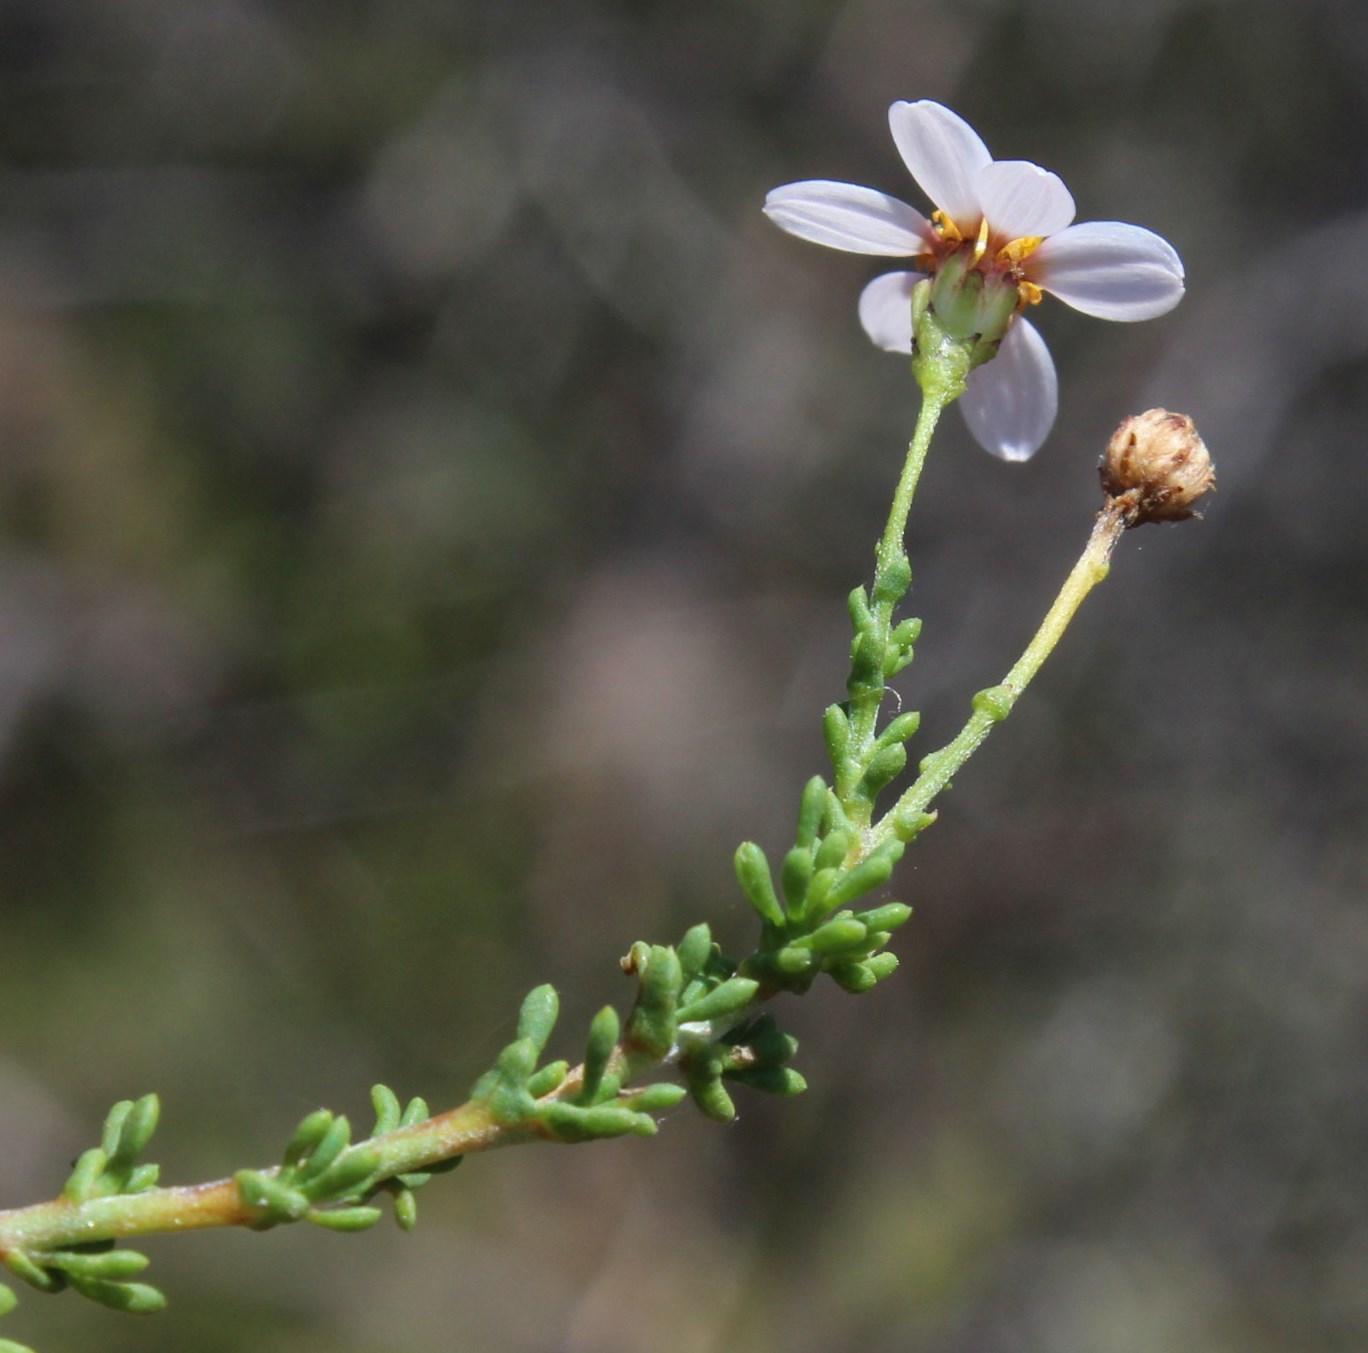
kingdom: Plantae
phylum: Tracheophyta
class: Magnoliopsida
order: Asterales
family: Asteraceae
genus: Phymaspermum
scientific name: Phymaspermum parvifolium
